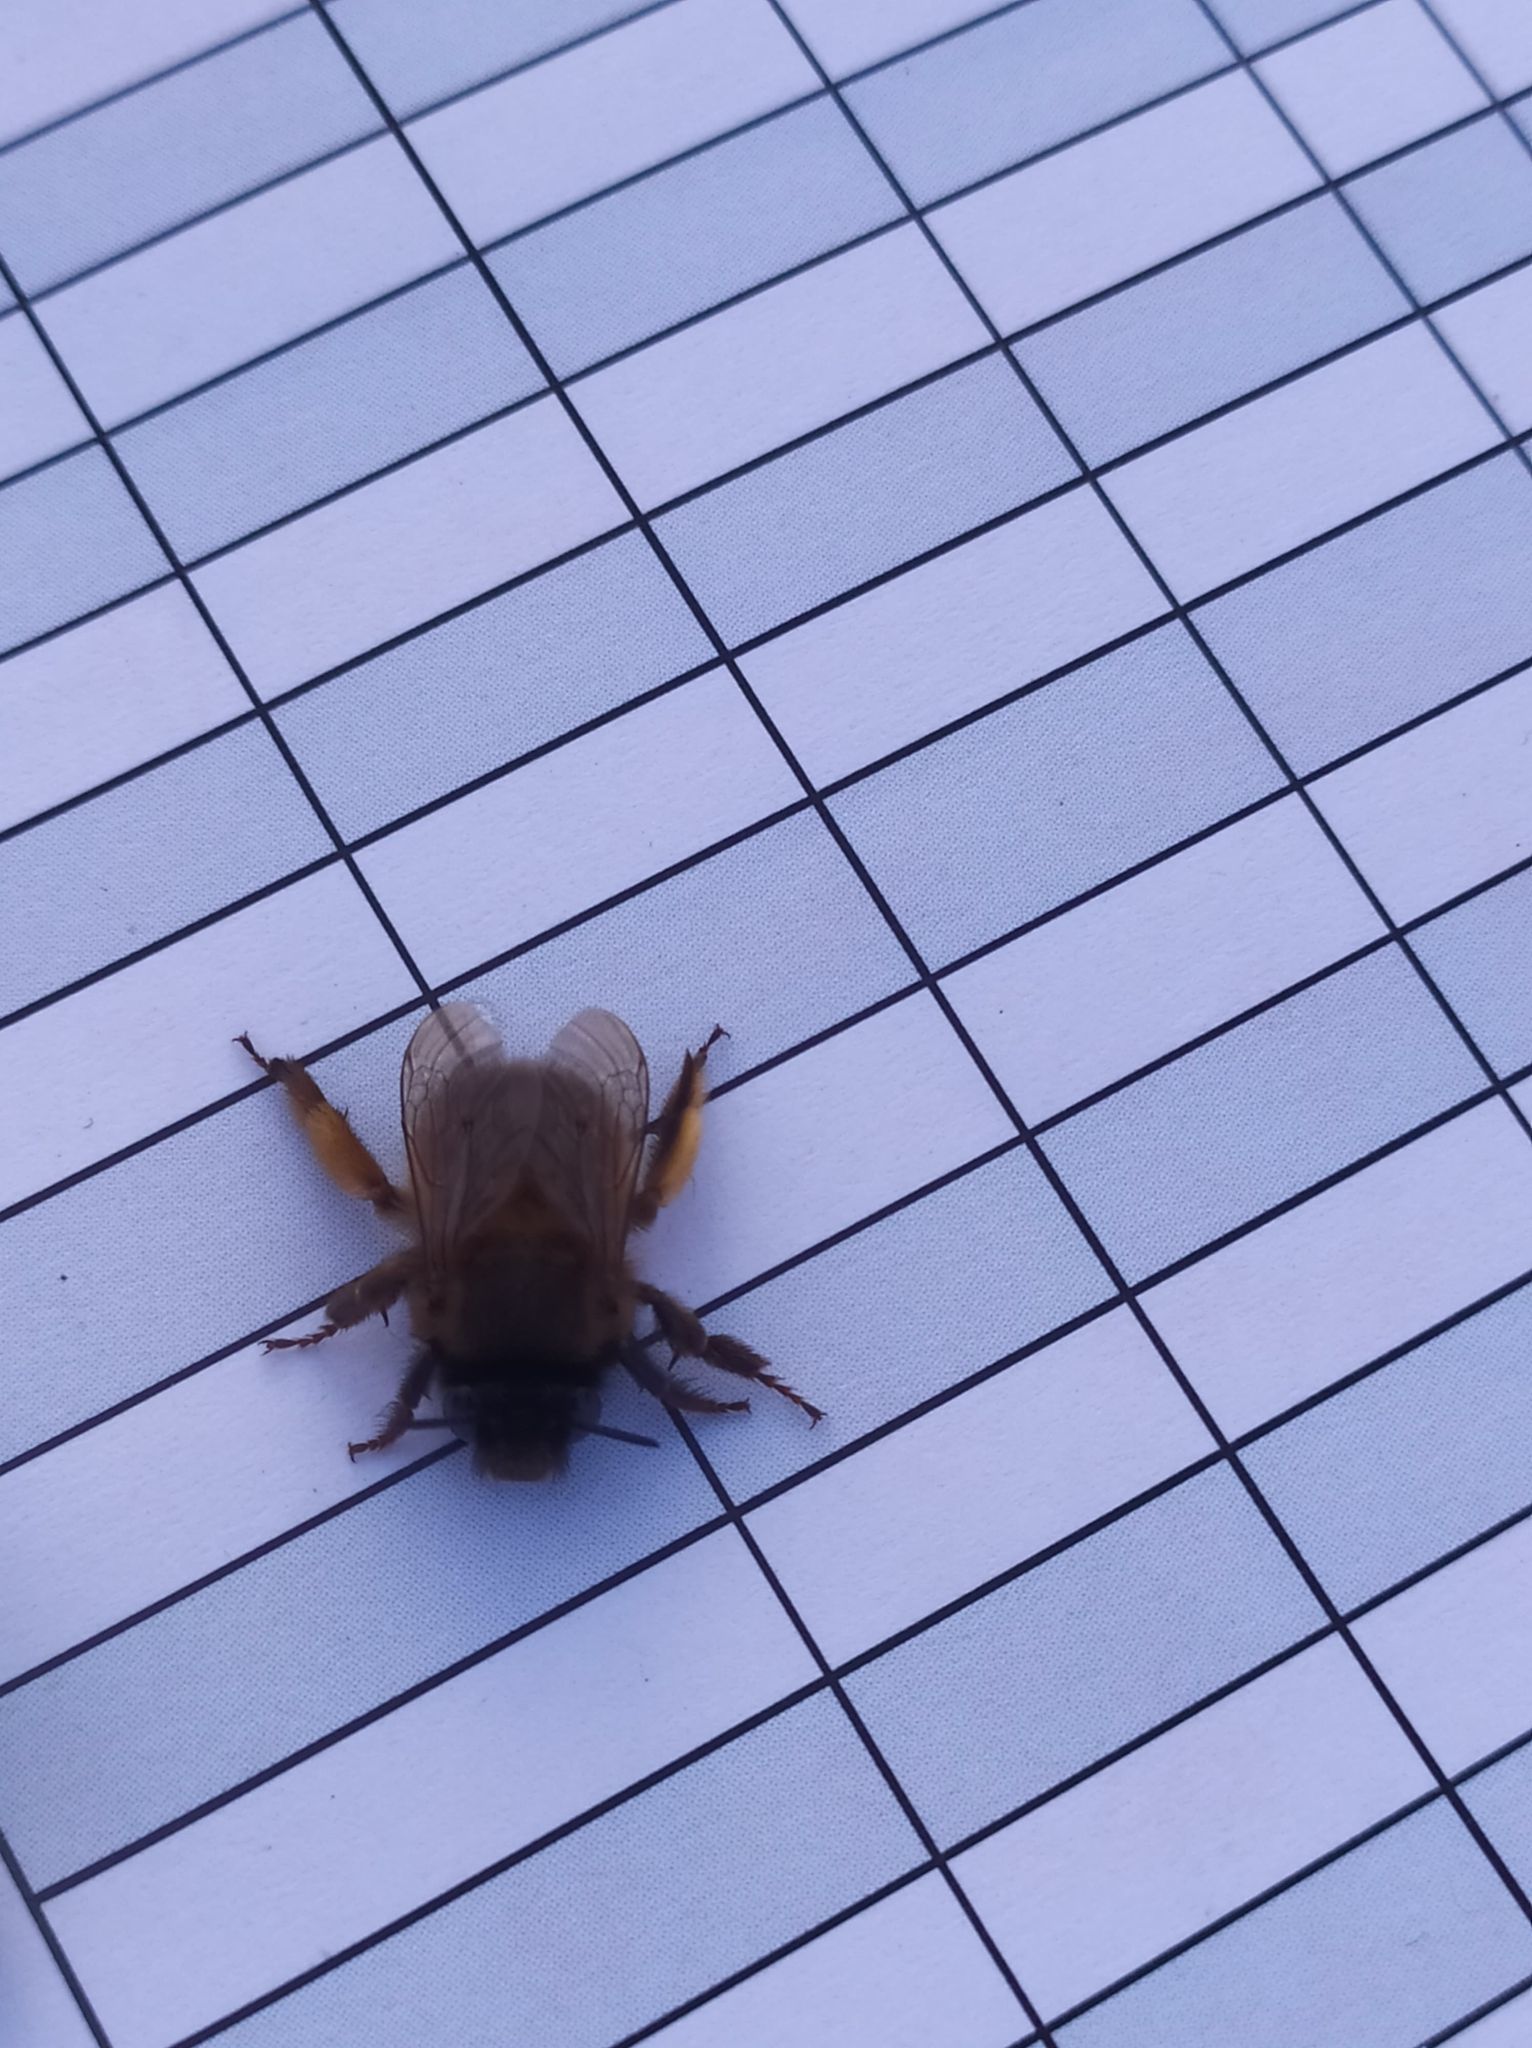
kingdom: Animalia
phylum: Arthropoda
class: Insecta
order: Hymenoptera
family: Apidae
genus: Anthophora
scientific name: Anthophora plumipes
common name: Hairy-footed flower bee
